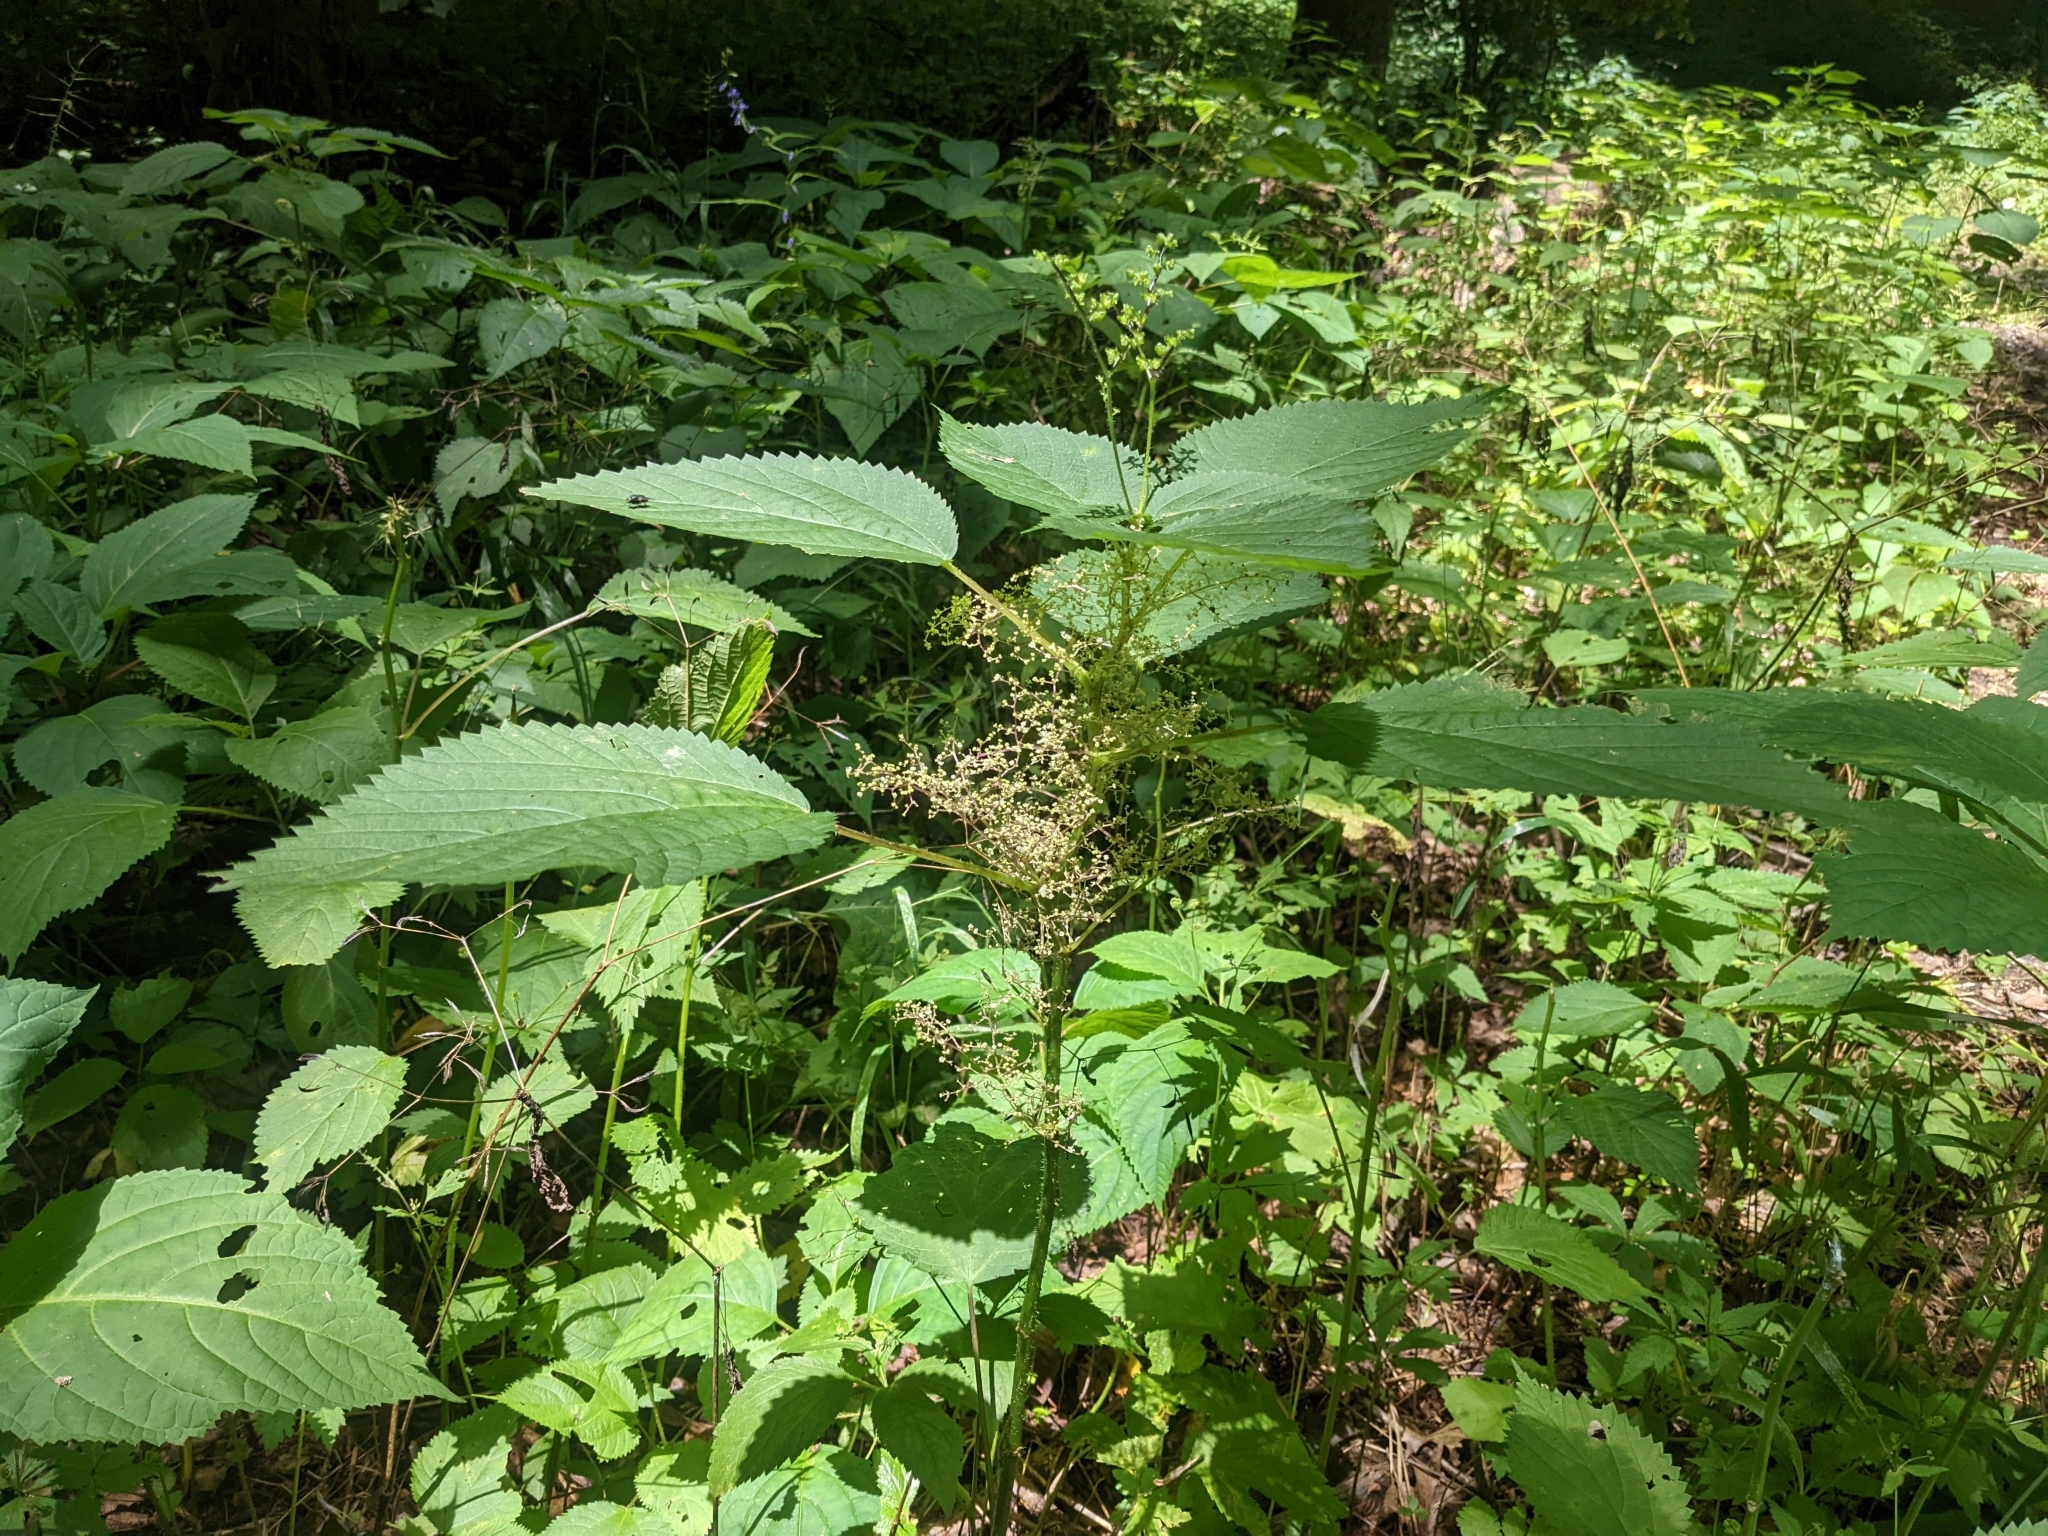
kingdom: Plantae
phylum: Tracheophyta
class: Magnoliopsida
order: Rosales
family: Urticaceae
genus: Laportea
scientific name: Laportea canadensis
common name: Canada nettle
